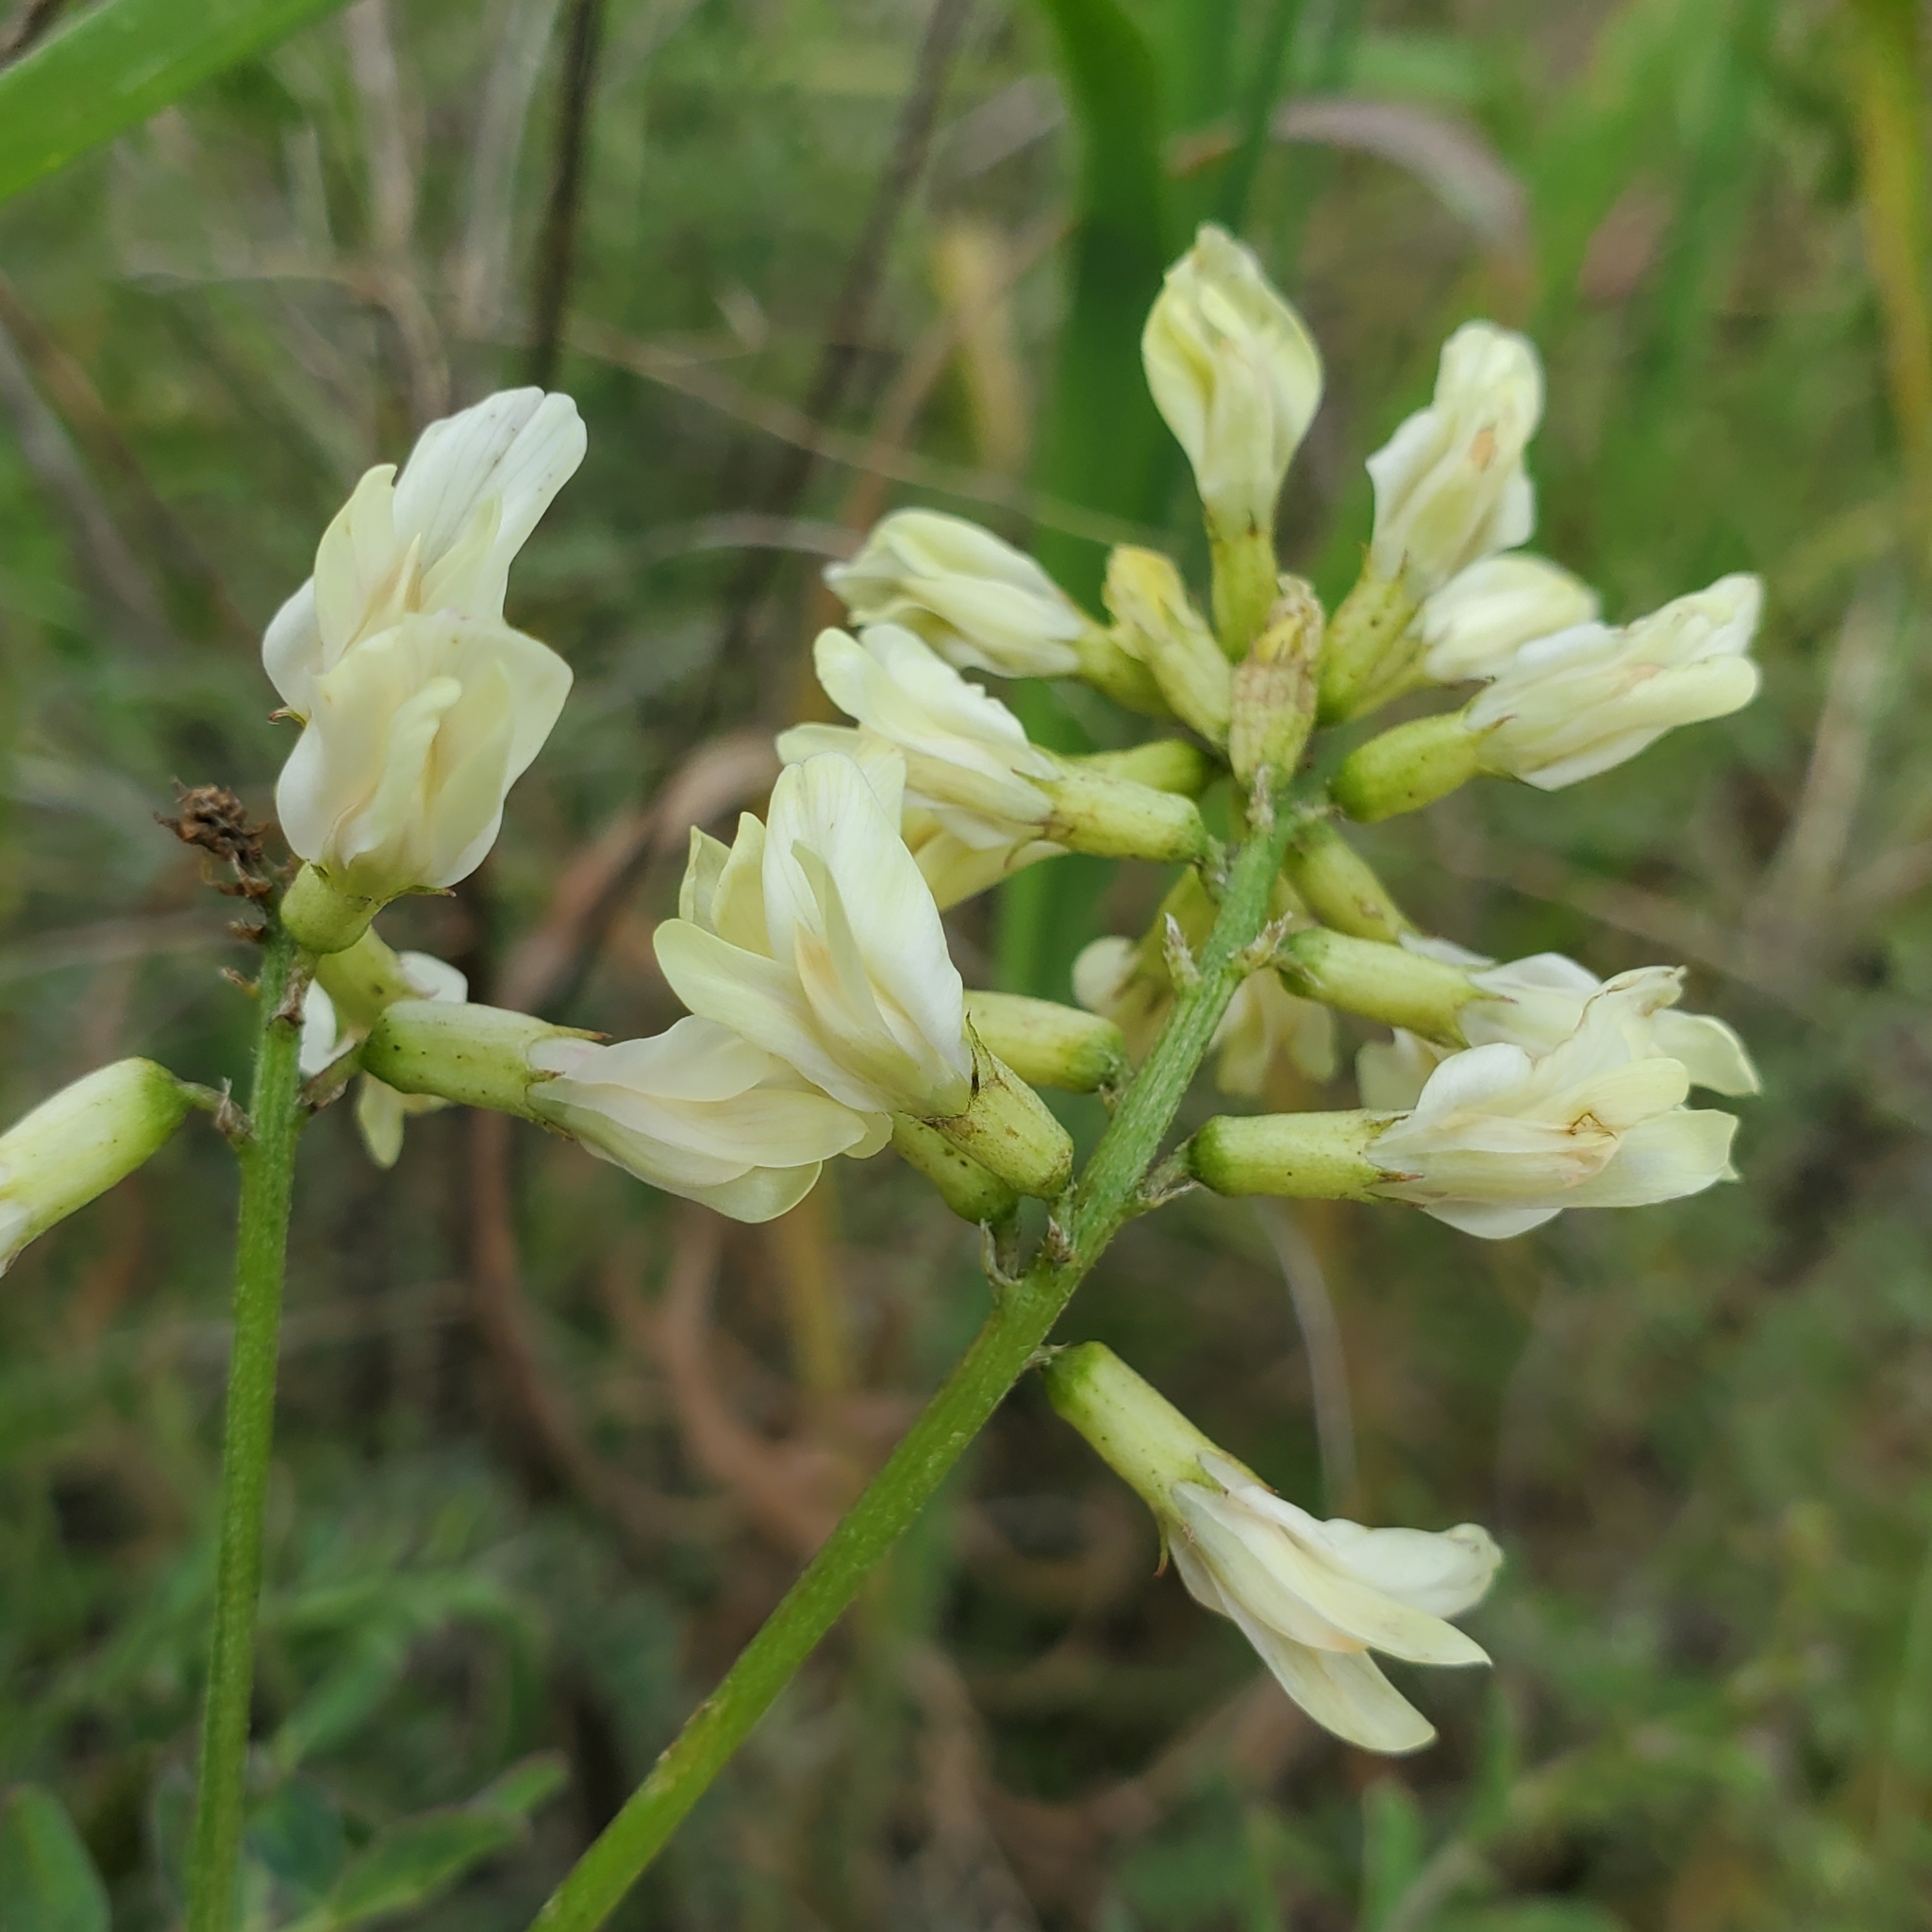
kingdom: Plantae
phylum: Tracheophyta
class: Magnoliopsida
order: Fabales
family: Fabaceae
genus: Astragalus
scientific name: Astragalus trichopodus
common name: Santa barbara milk-vetch
